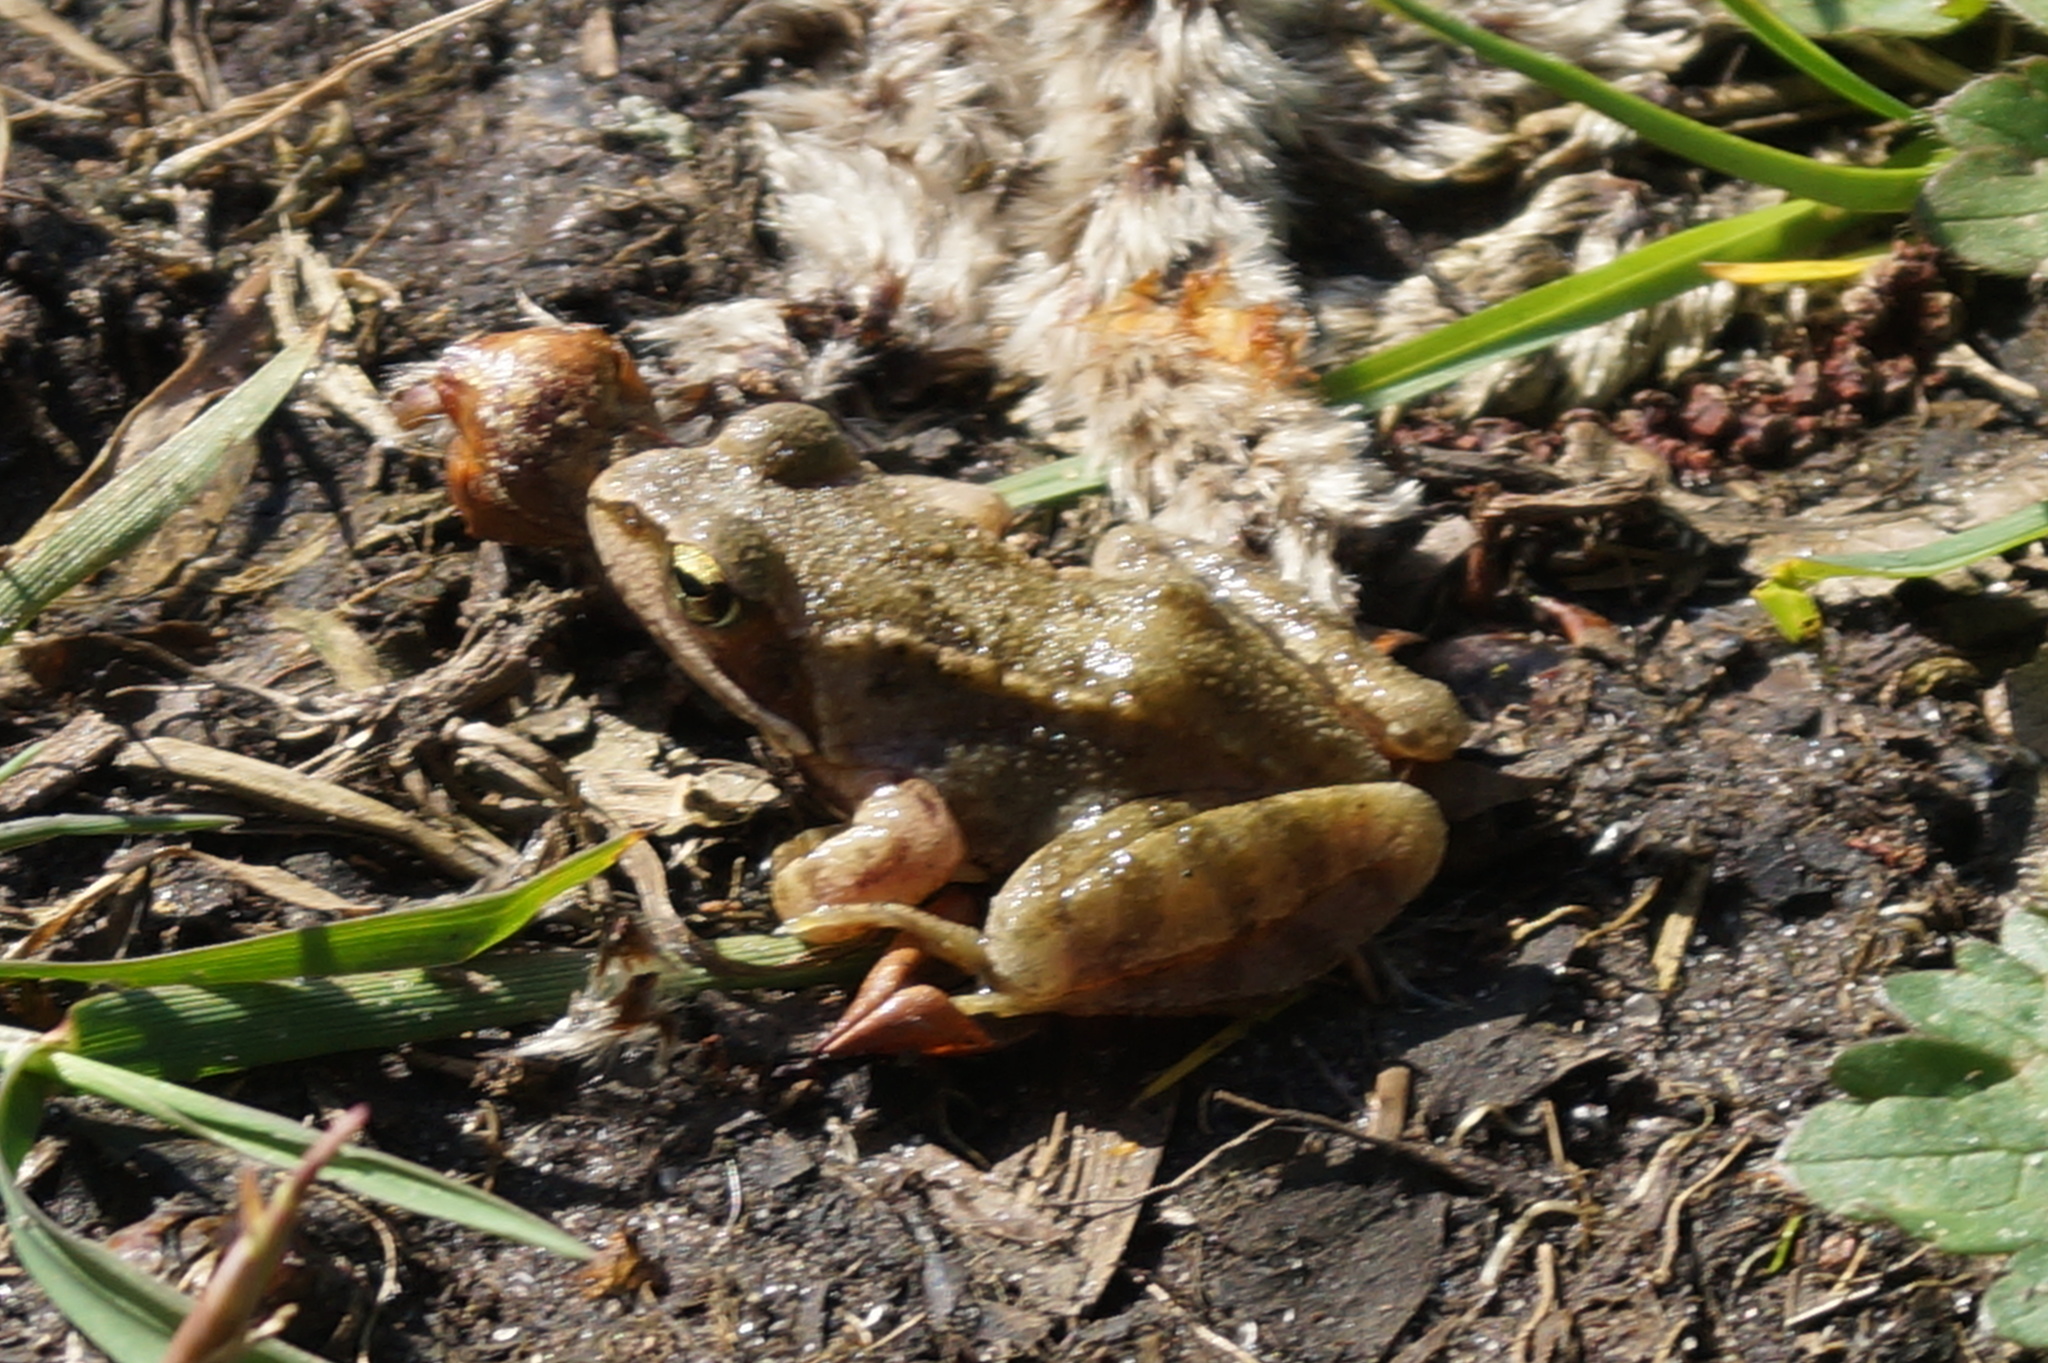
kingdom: Animalia
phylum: Chordata
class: Amphibia
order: Anura
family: Ranidae
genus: Rana
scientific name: Rana temporaria
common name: Common frog
